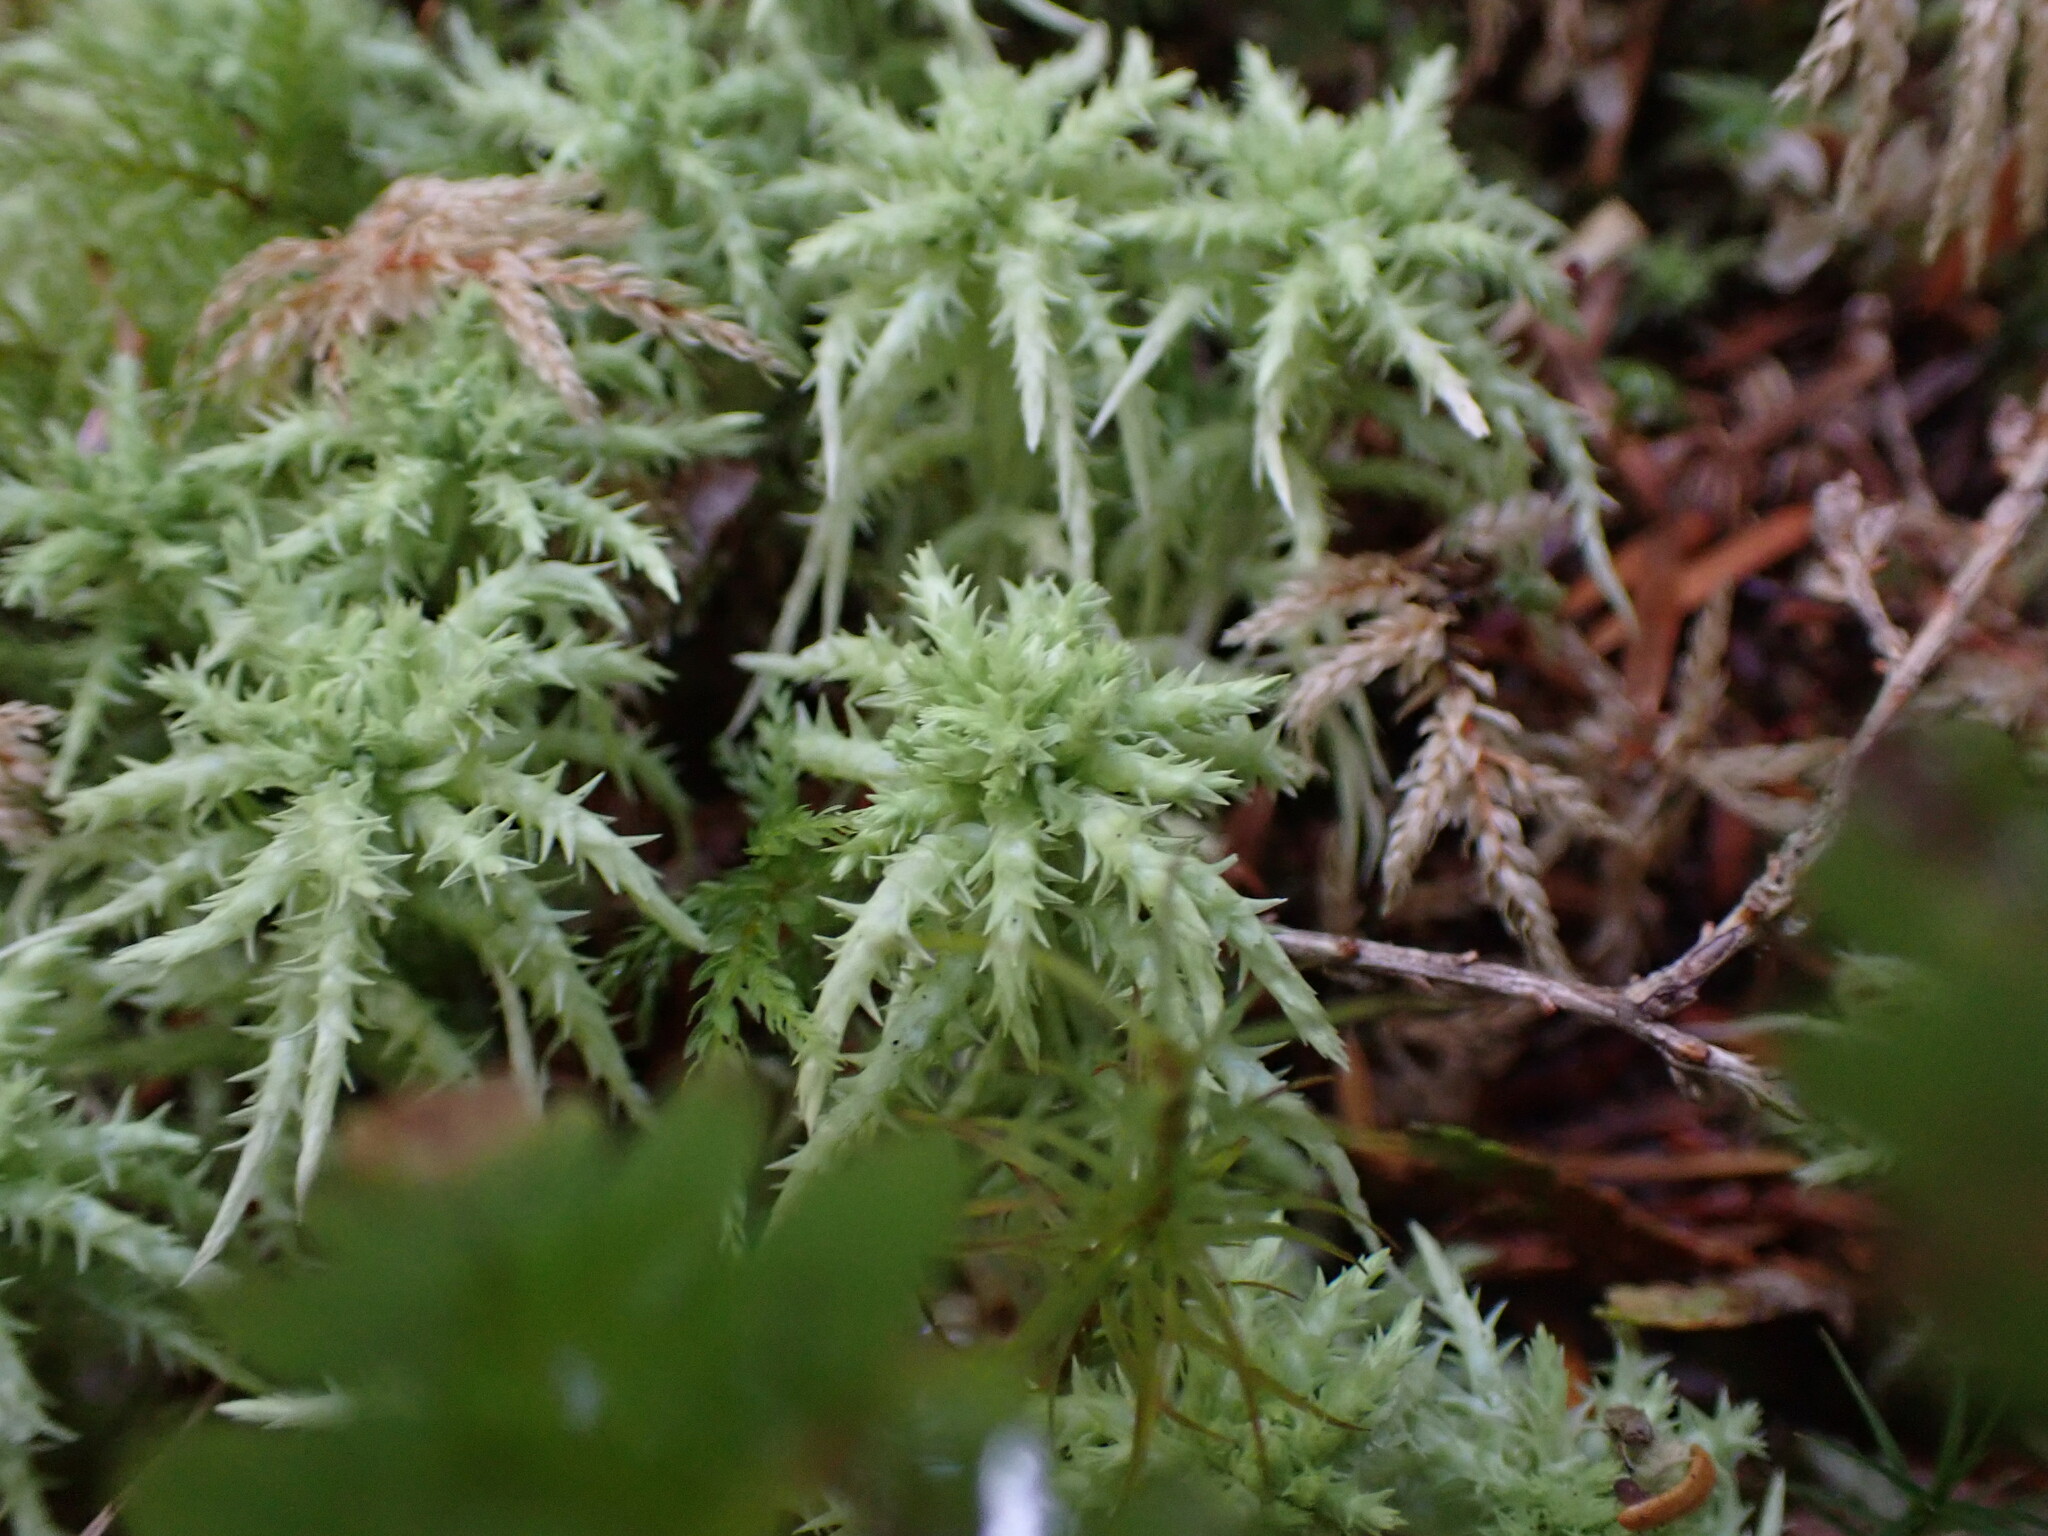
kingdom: Plantae
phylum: Bryophyta
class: Sphagnopsida
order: Sphagnales
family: Sphagnaceae
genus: Sphagnum
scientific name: Sphagnum squarrosum
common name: Shaggy peat moss
